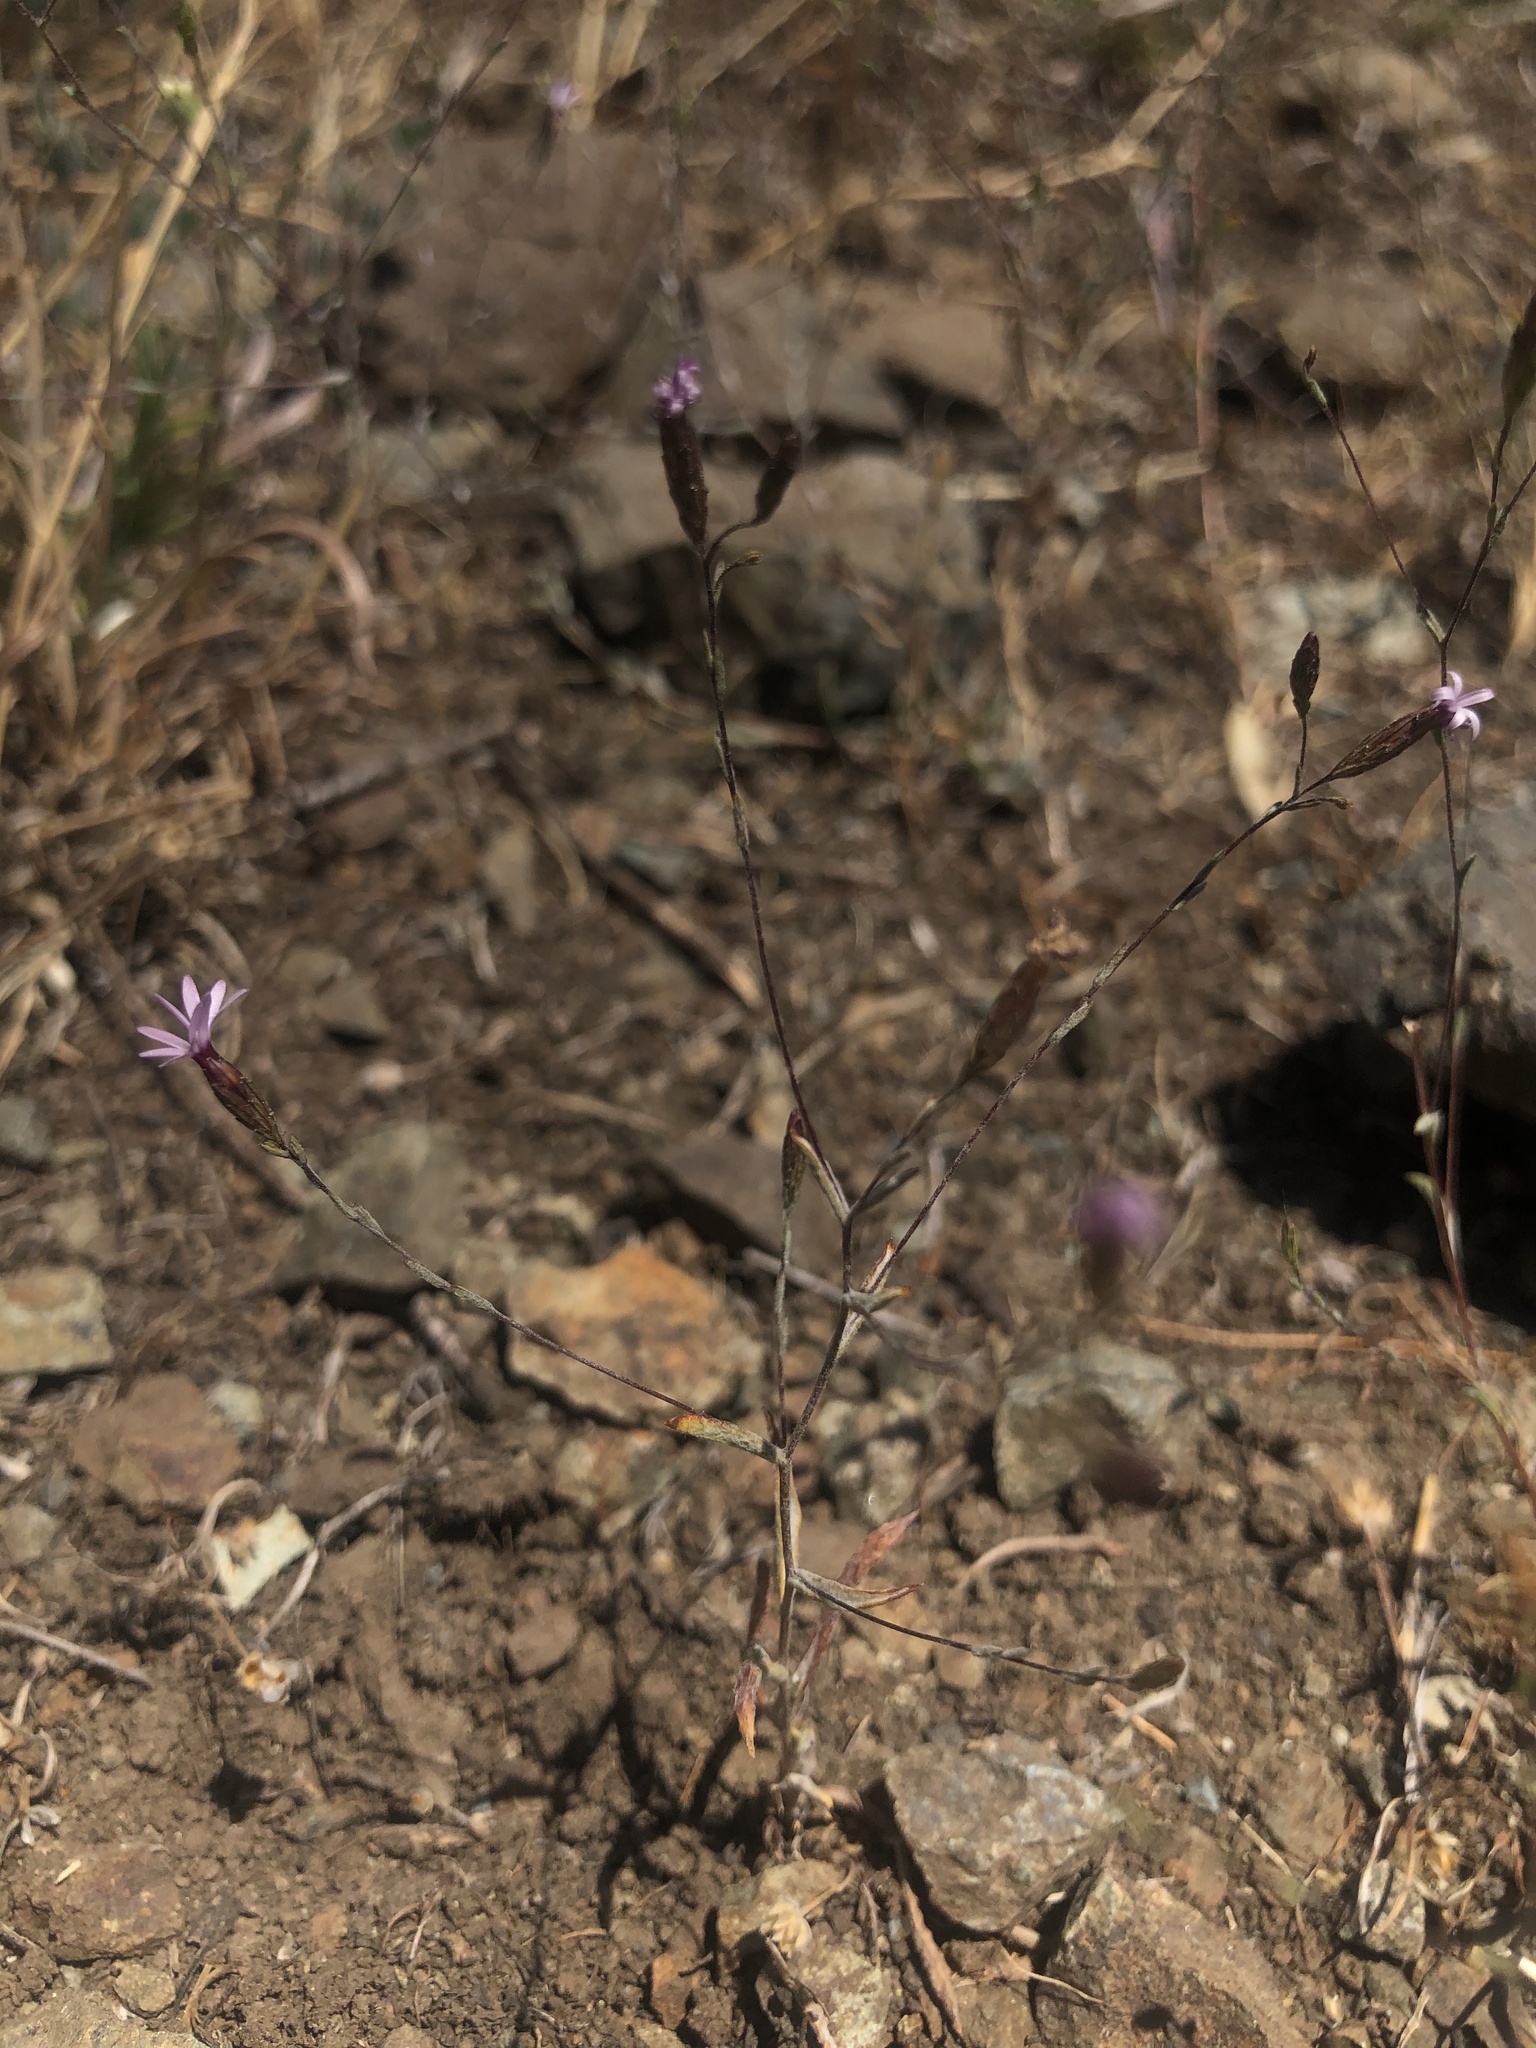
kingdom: Plantae
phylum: Tracheophyta
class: Magnoliopsida
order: Asterales
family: Asteraceae
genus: Lessingia
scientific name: Lessingia micradenia
